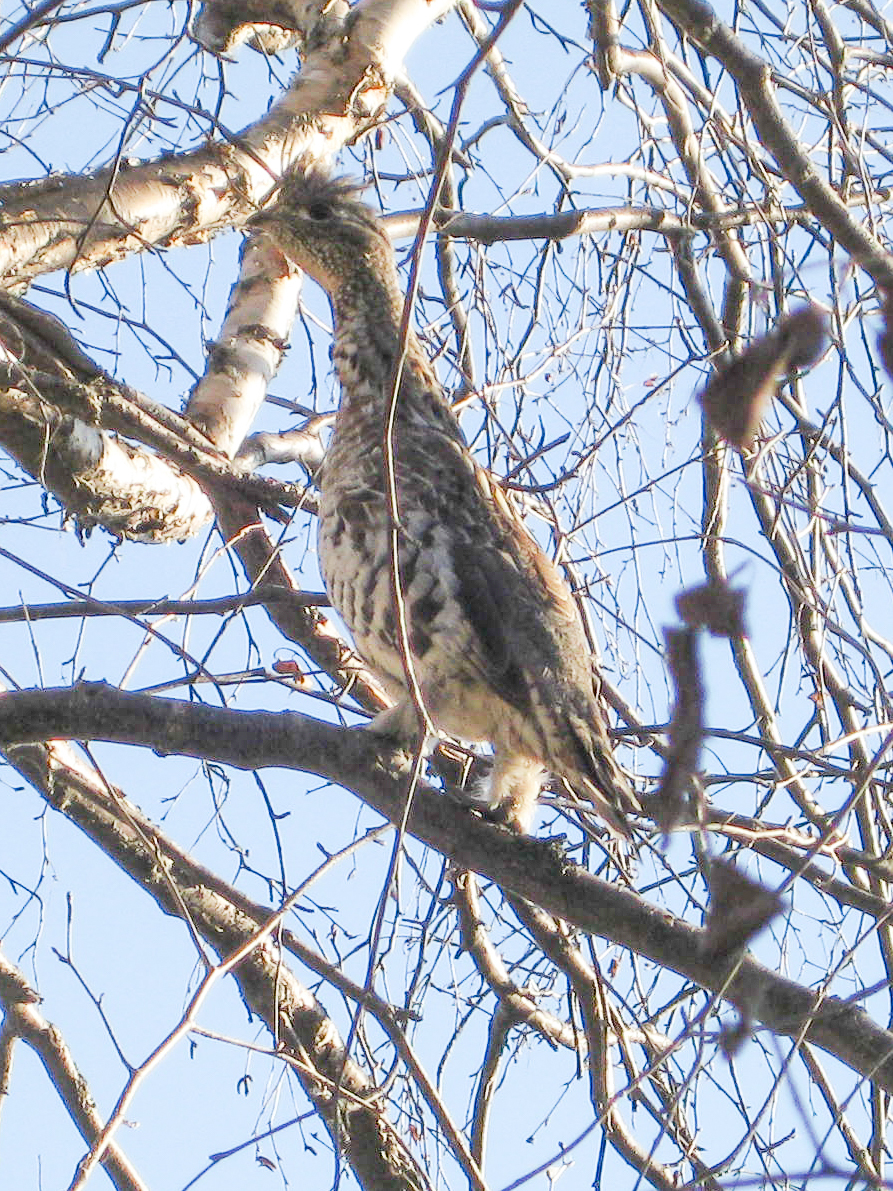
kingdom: Animalia
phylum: Chordata
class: Aves
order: Galliformes
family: Phasianidae
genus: Bonasa
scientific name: Bonasa umbellus
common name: Ruffed grouse
